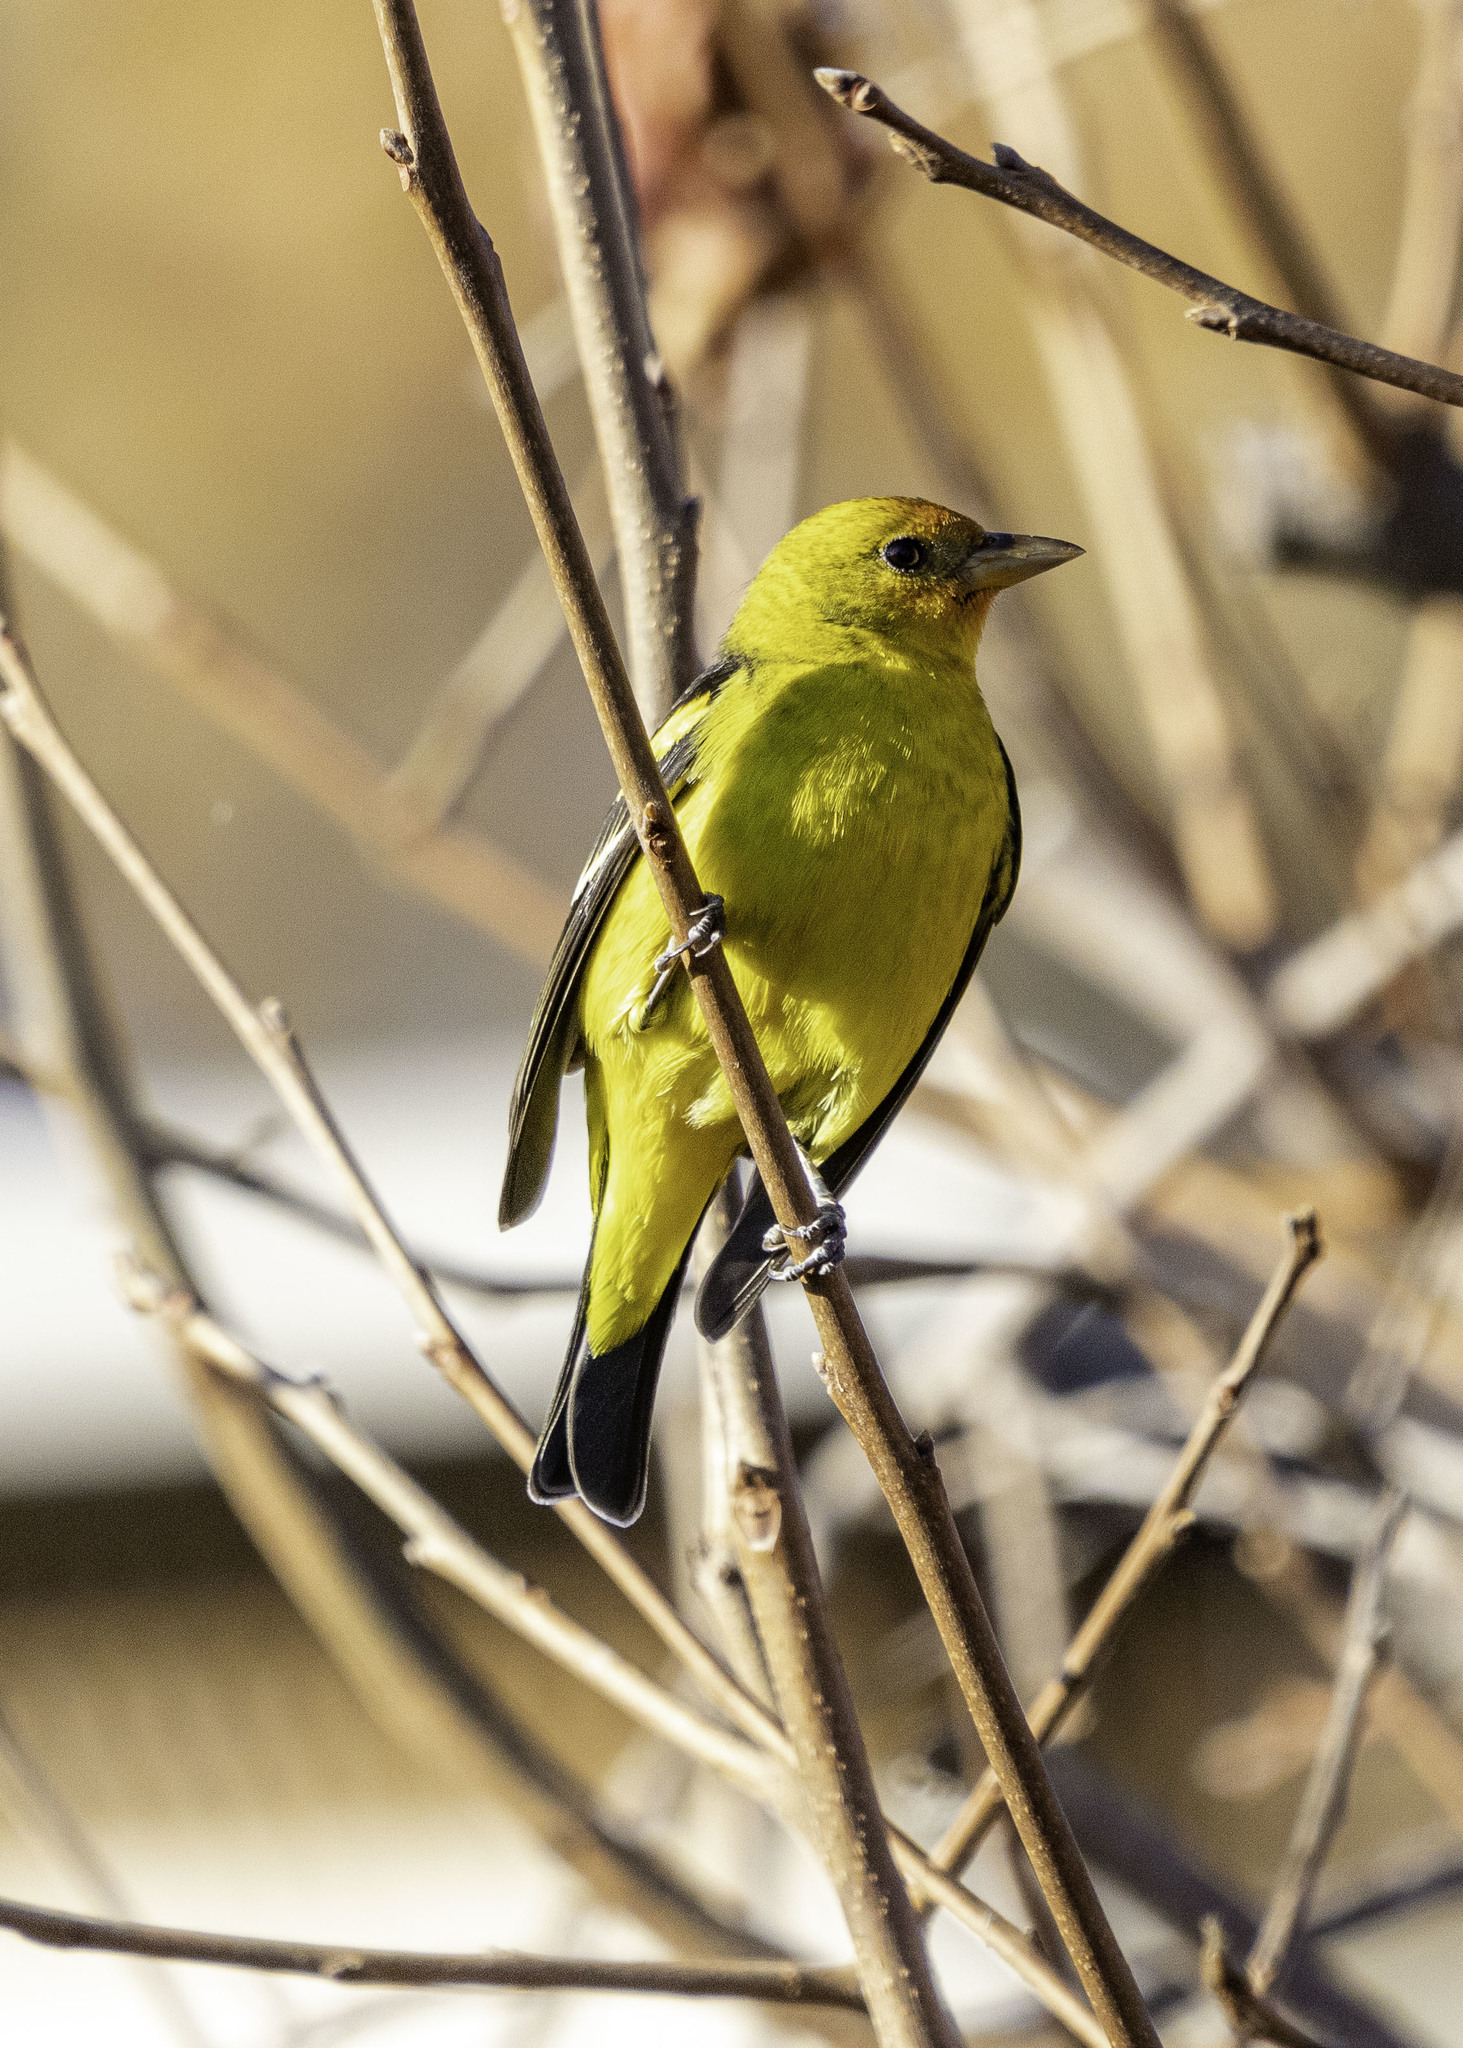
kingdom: Animalia
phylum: Chordata
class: Aves
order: Passeriformes
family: Cardinalidae
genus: Piranga
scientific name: Piranga ludoviciana
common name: Western tanager
